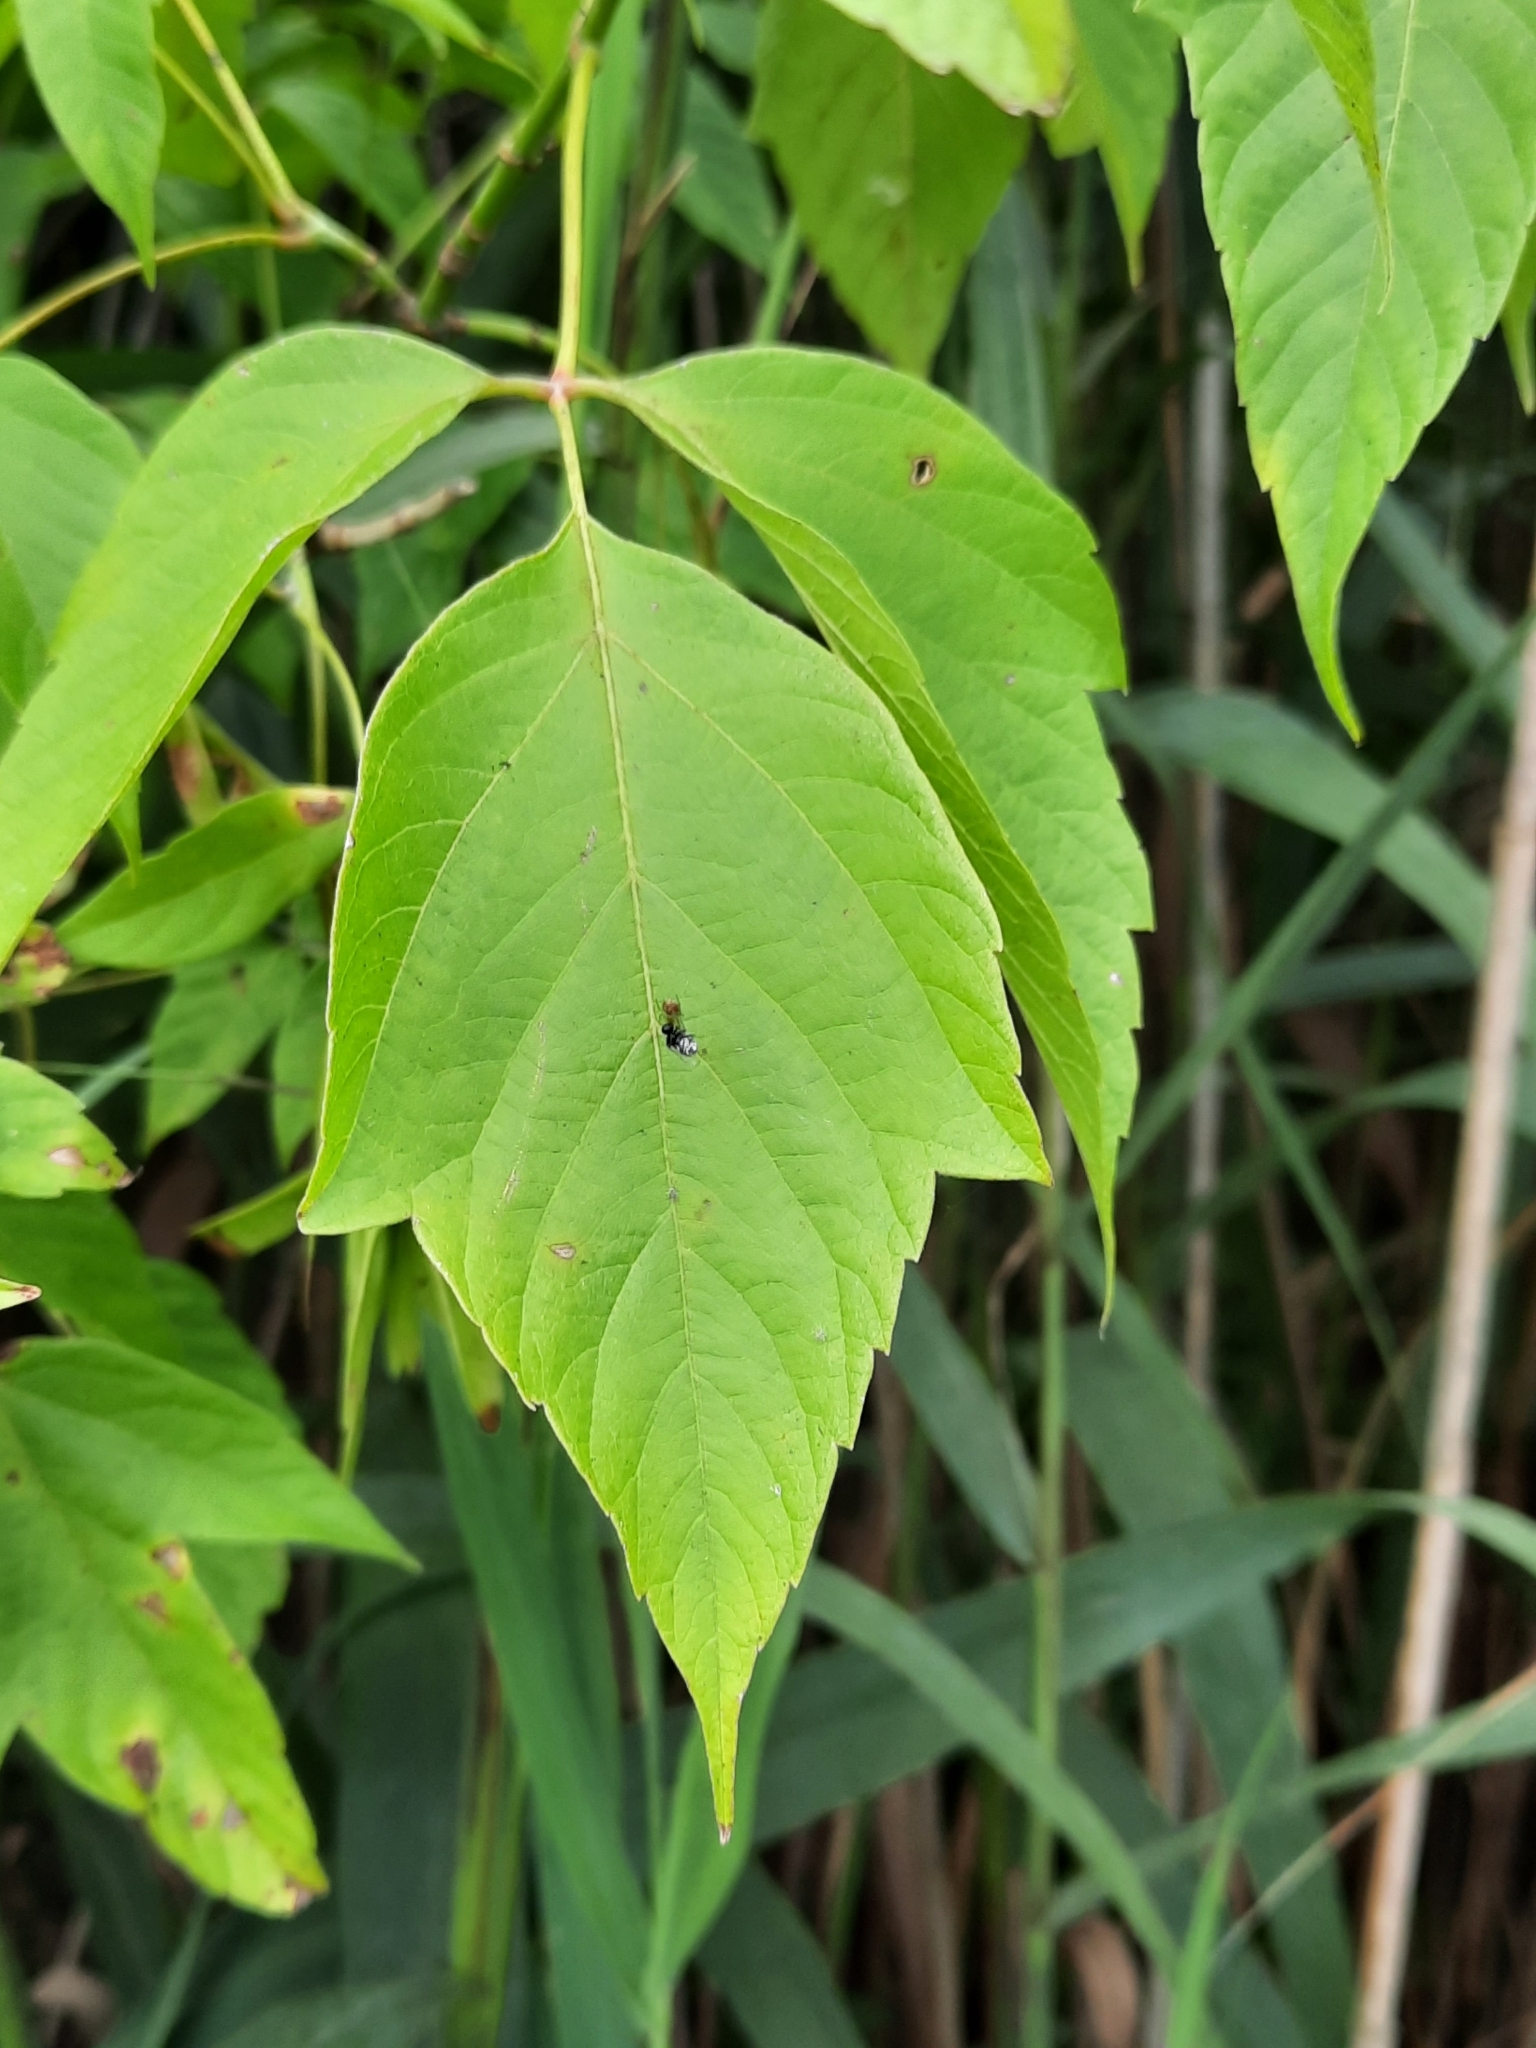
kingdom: Plantae
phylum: Tracheophyta
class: Magnoliopsida
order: Sapindales
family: Sapindaceae
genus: Acer
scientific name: Acer negundo
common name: Ashleaf maple
